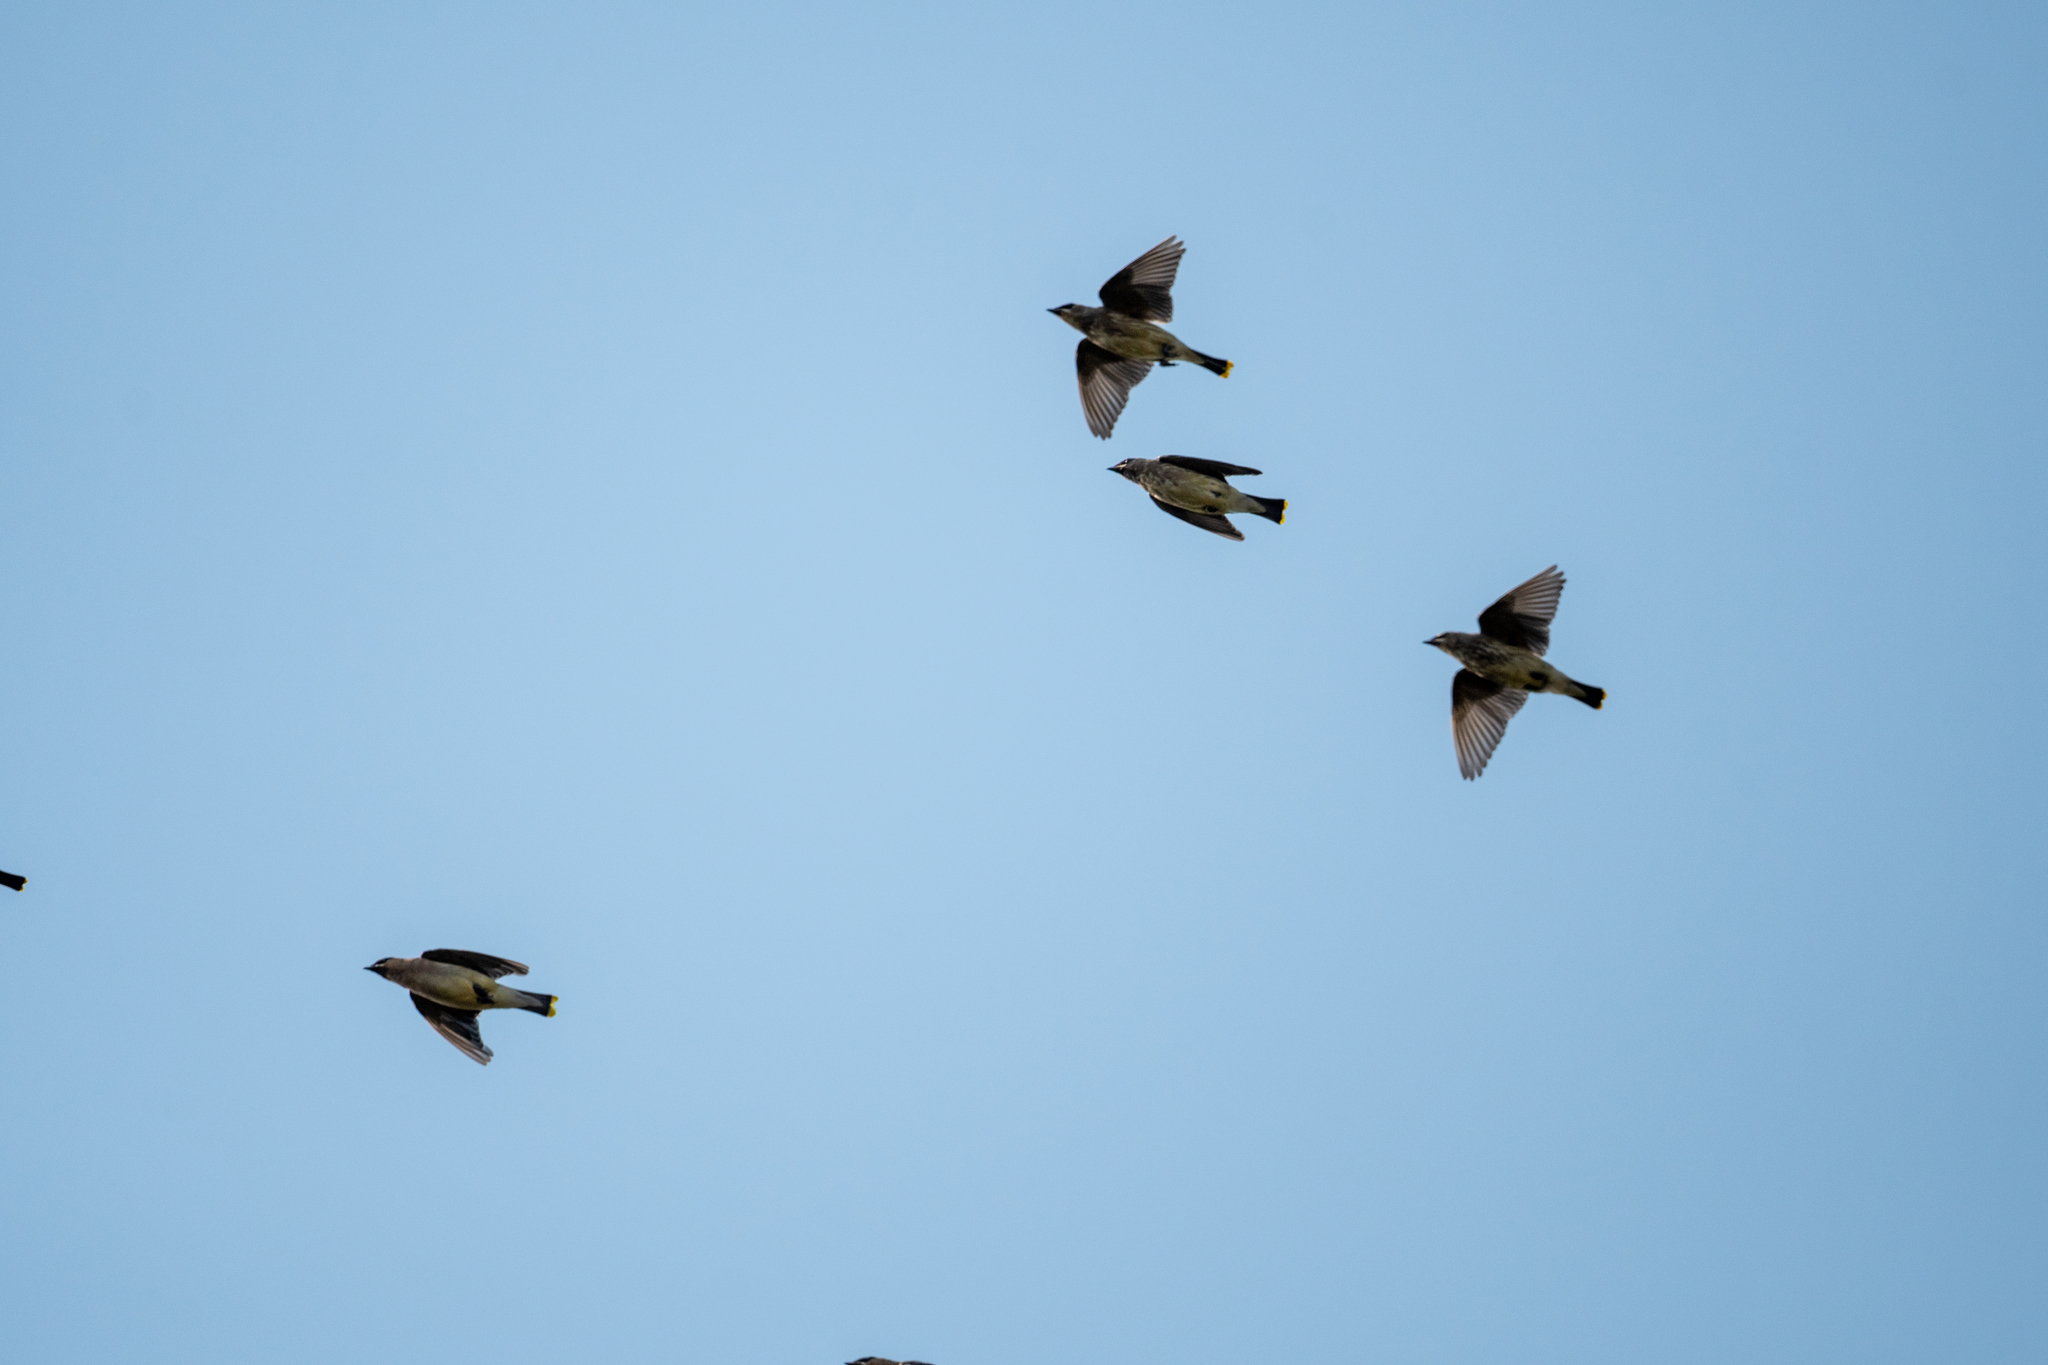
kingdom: Animalia
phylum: Chordata
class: Aves
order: Passeriformes
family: Bombycillidae
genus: Bombycilla
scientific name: Bombycilla cedrorum
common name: Cedar waxwing
